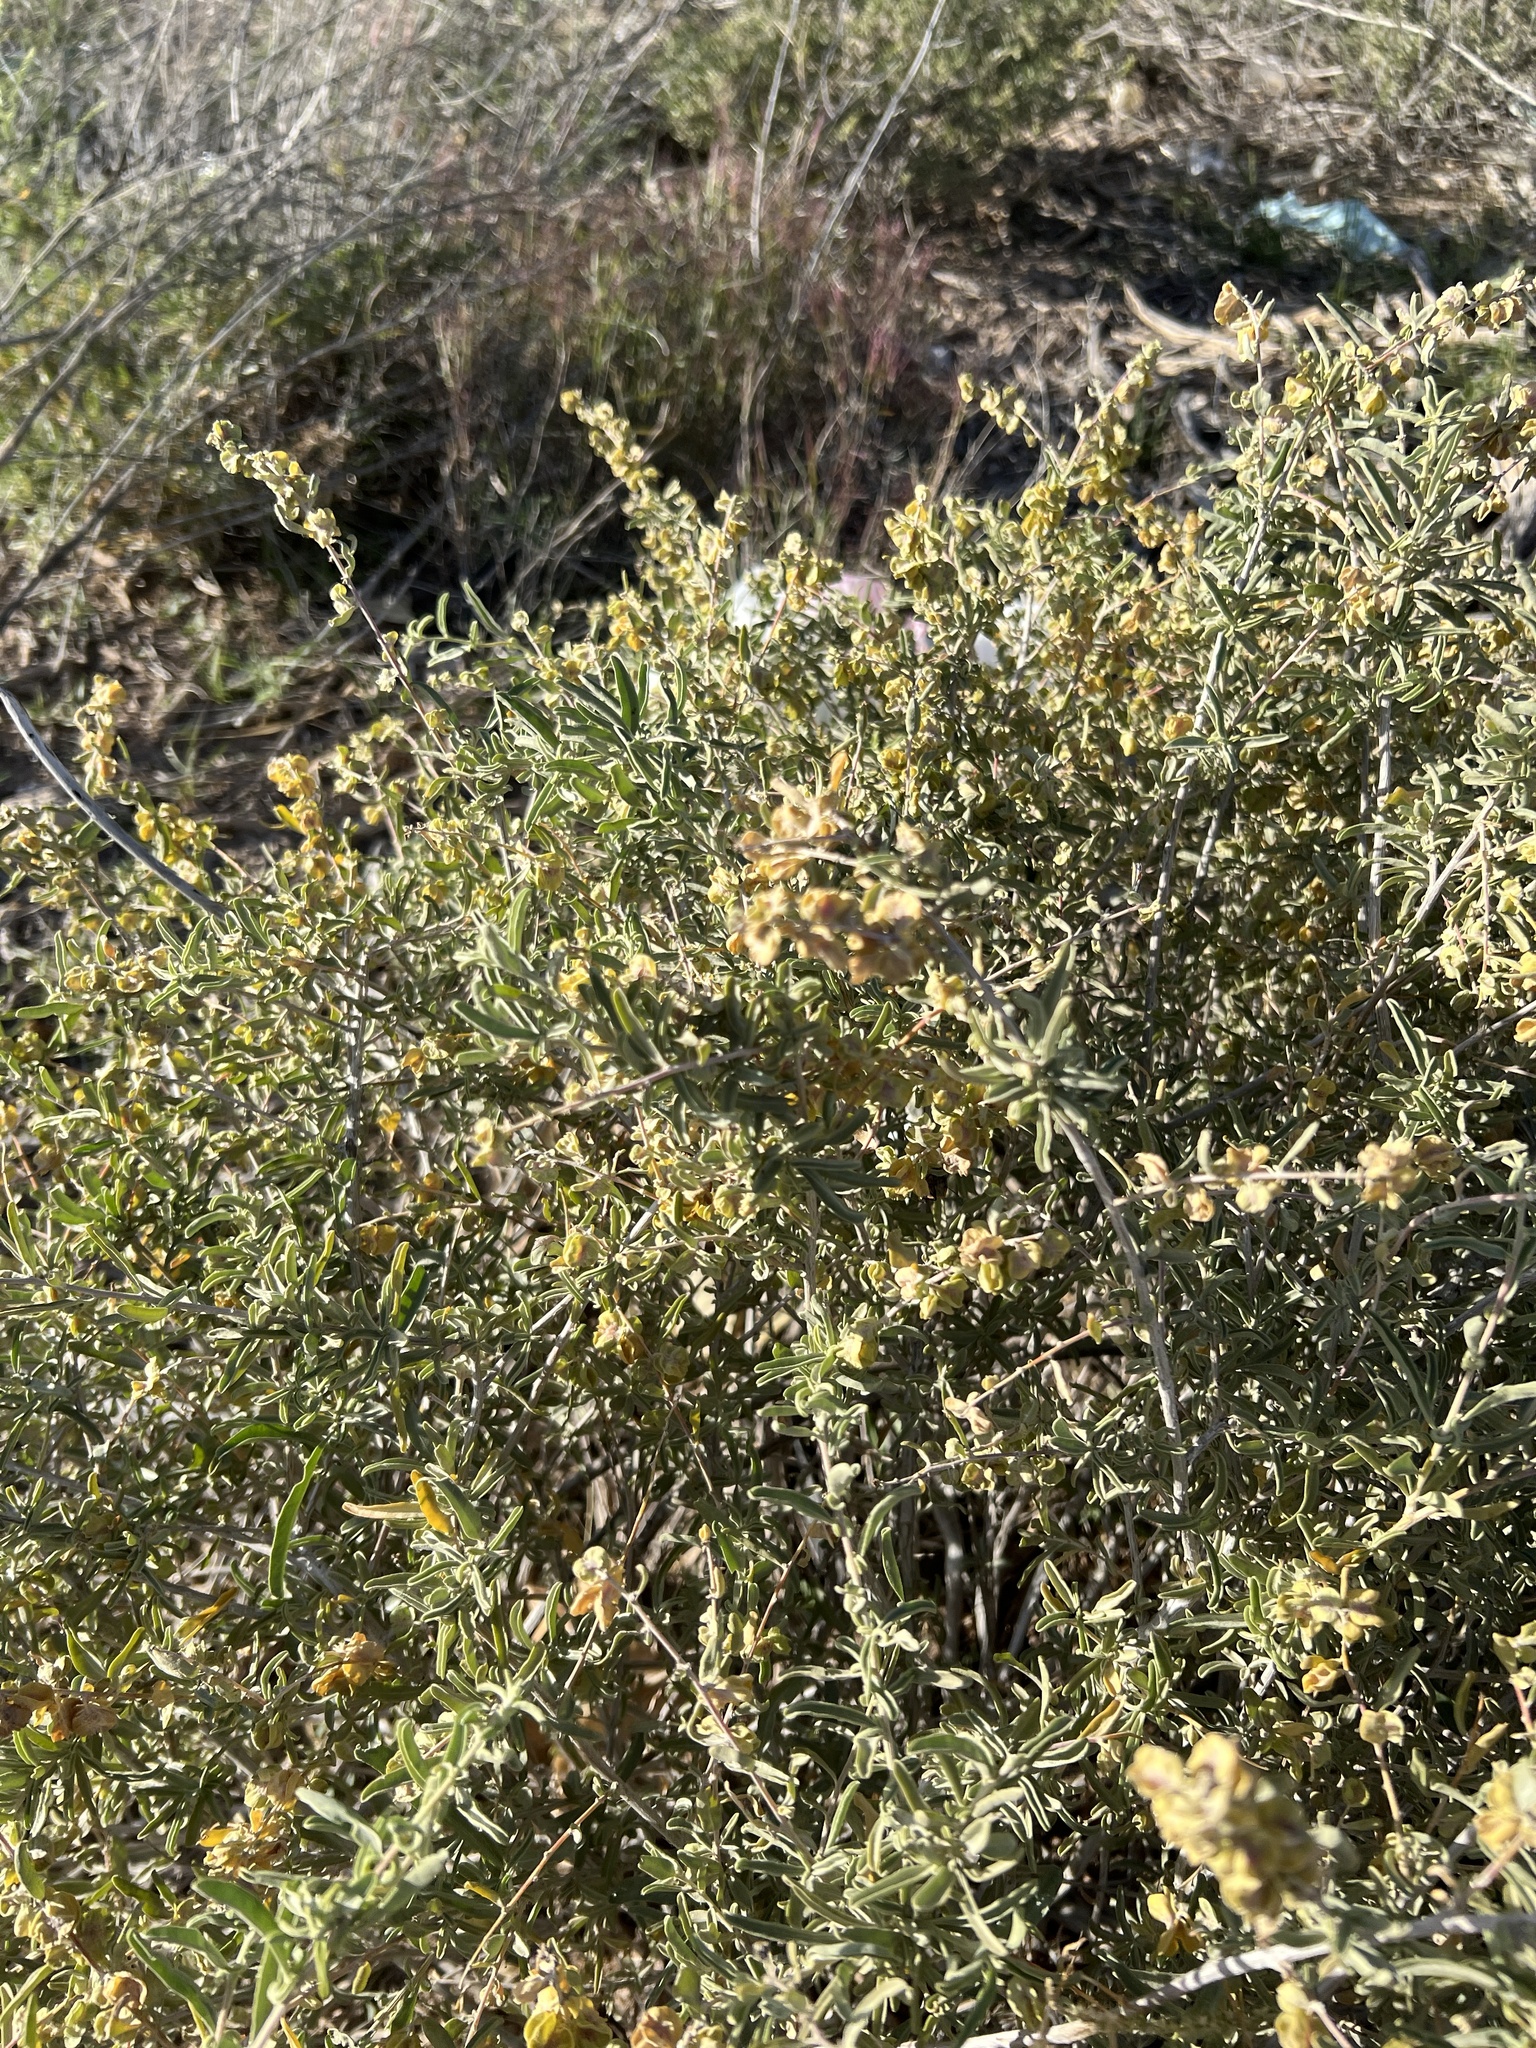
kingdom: Plantae
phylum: Tracheophyta
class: Magnoliopsida
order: Caryophyllales
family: Amaranthaceae
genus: Atriplex
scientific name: Atriplex canescens
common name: Four-wing saltbush
